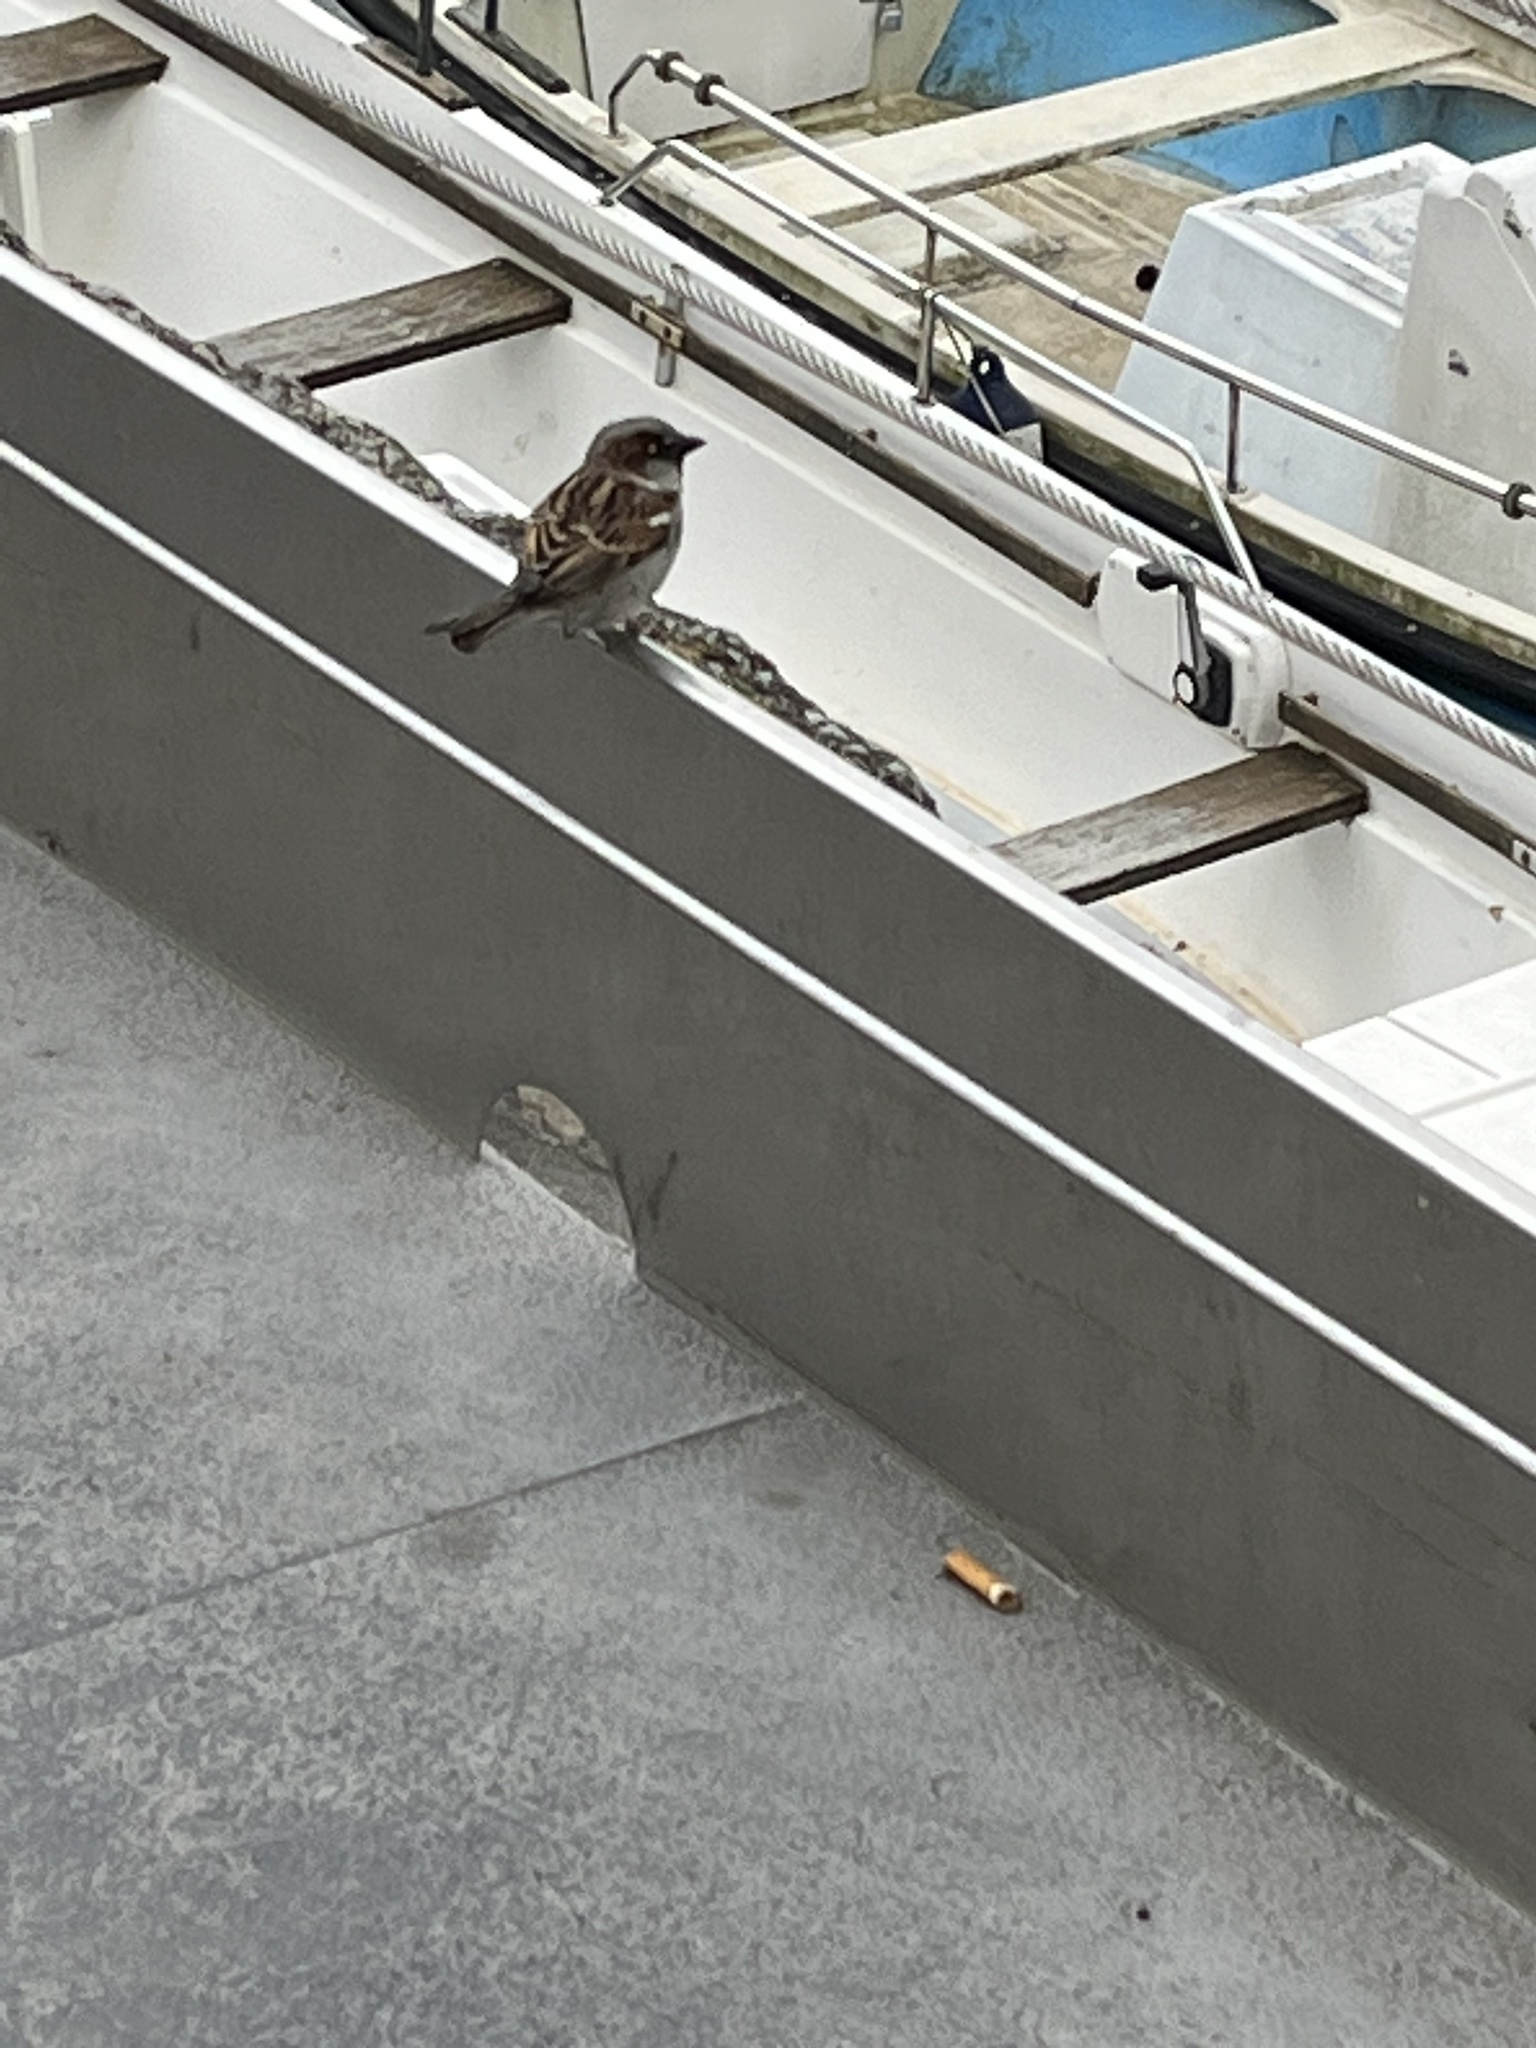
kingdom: Animalia
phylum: Chordata
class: Aves
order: Passeriformes
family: Passeridae
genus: Passer
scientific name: Passer domesticus
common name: House sparrow
